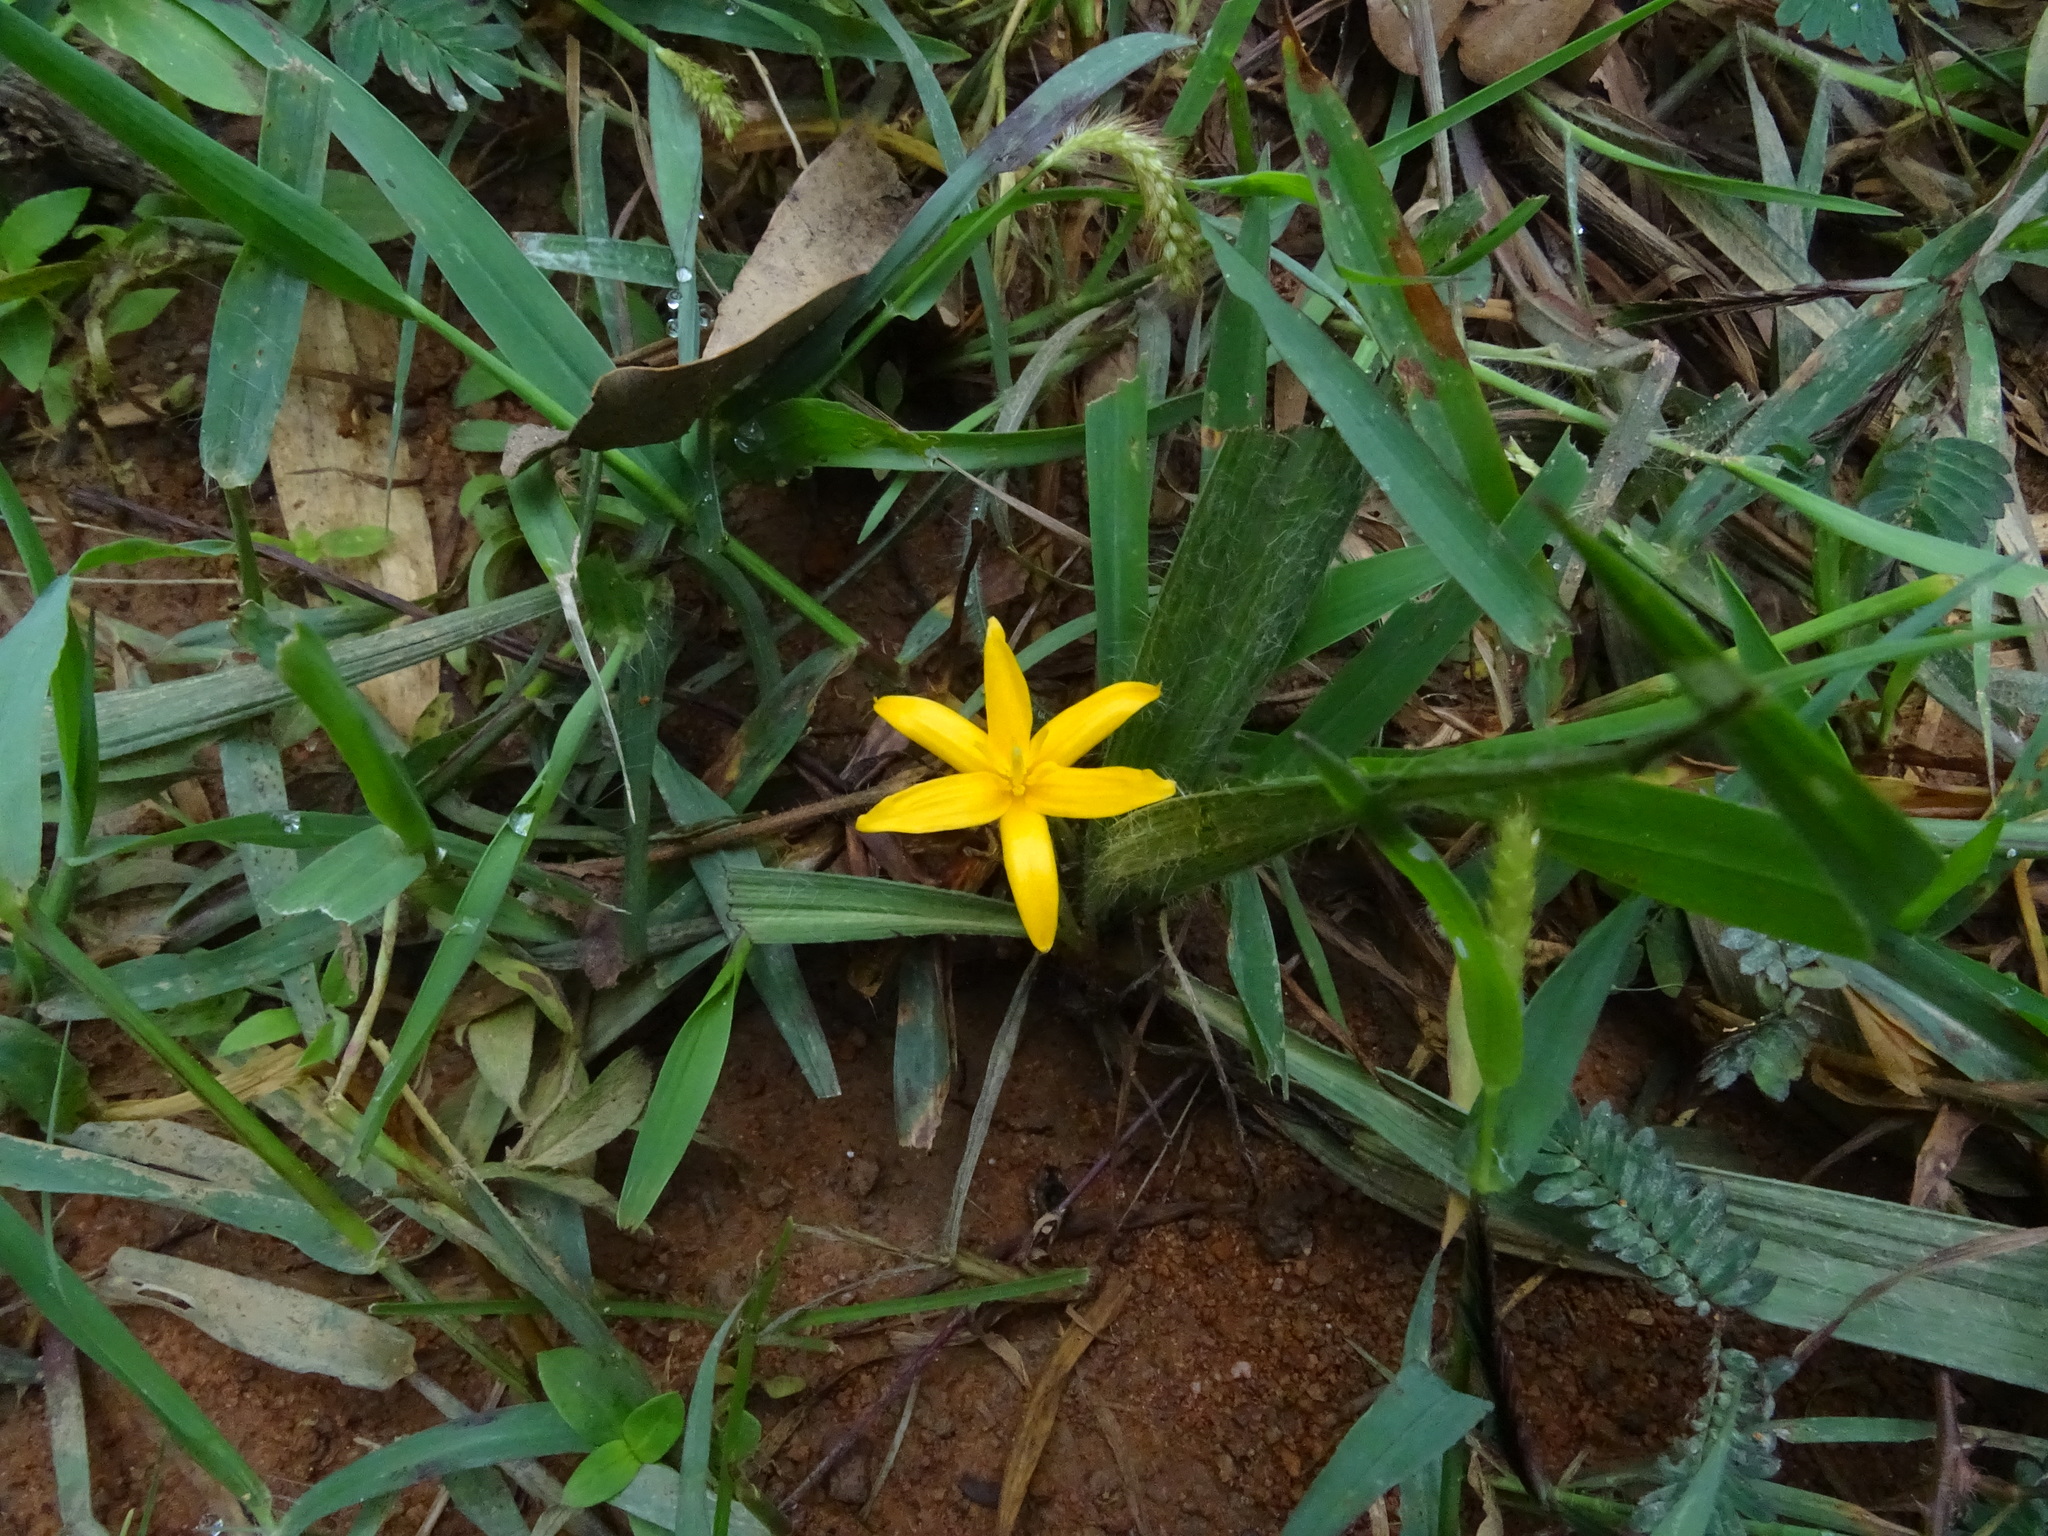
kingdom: Plantae
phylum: Tracheophyta
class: Liliopsida
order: Asparagales
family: Hypoxidaceae
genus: Curculigo
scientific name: Curculigo orchioides
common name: Golden eye-grass
